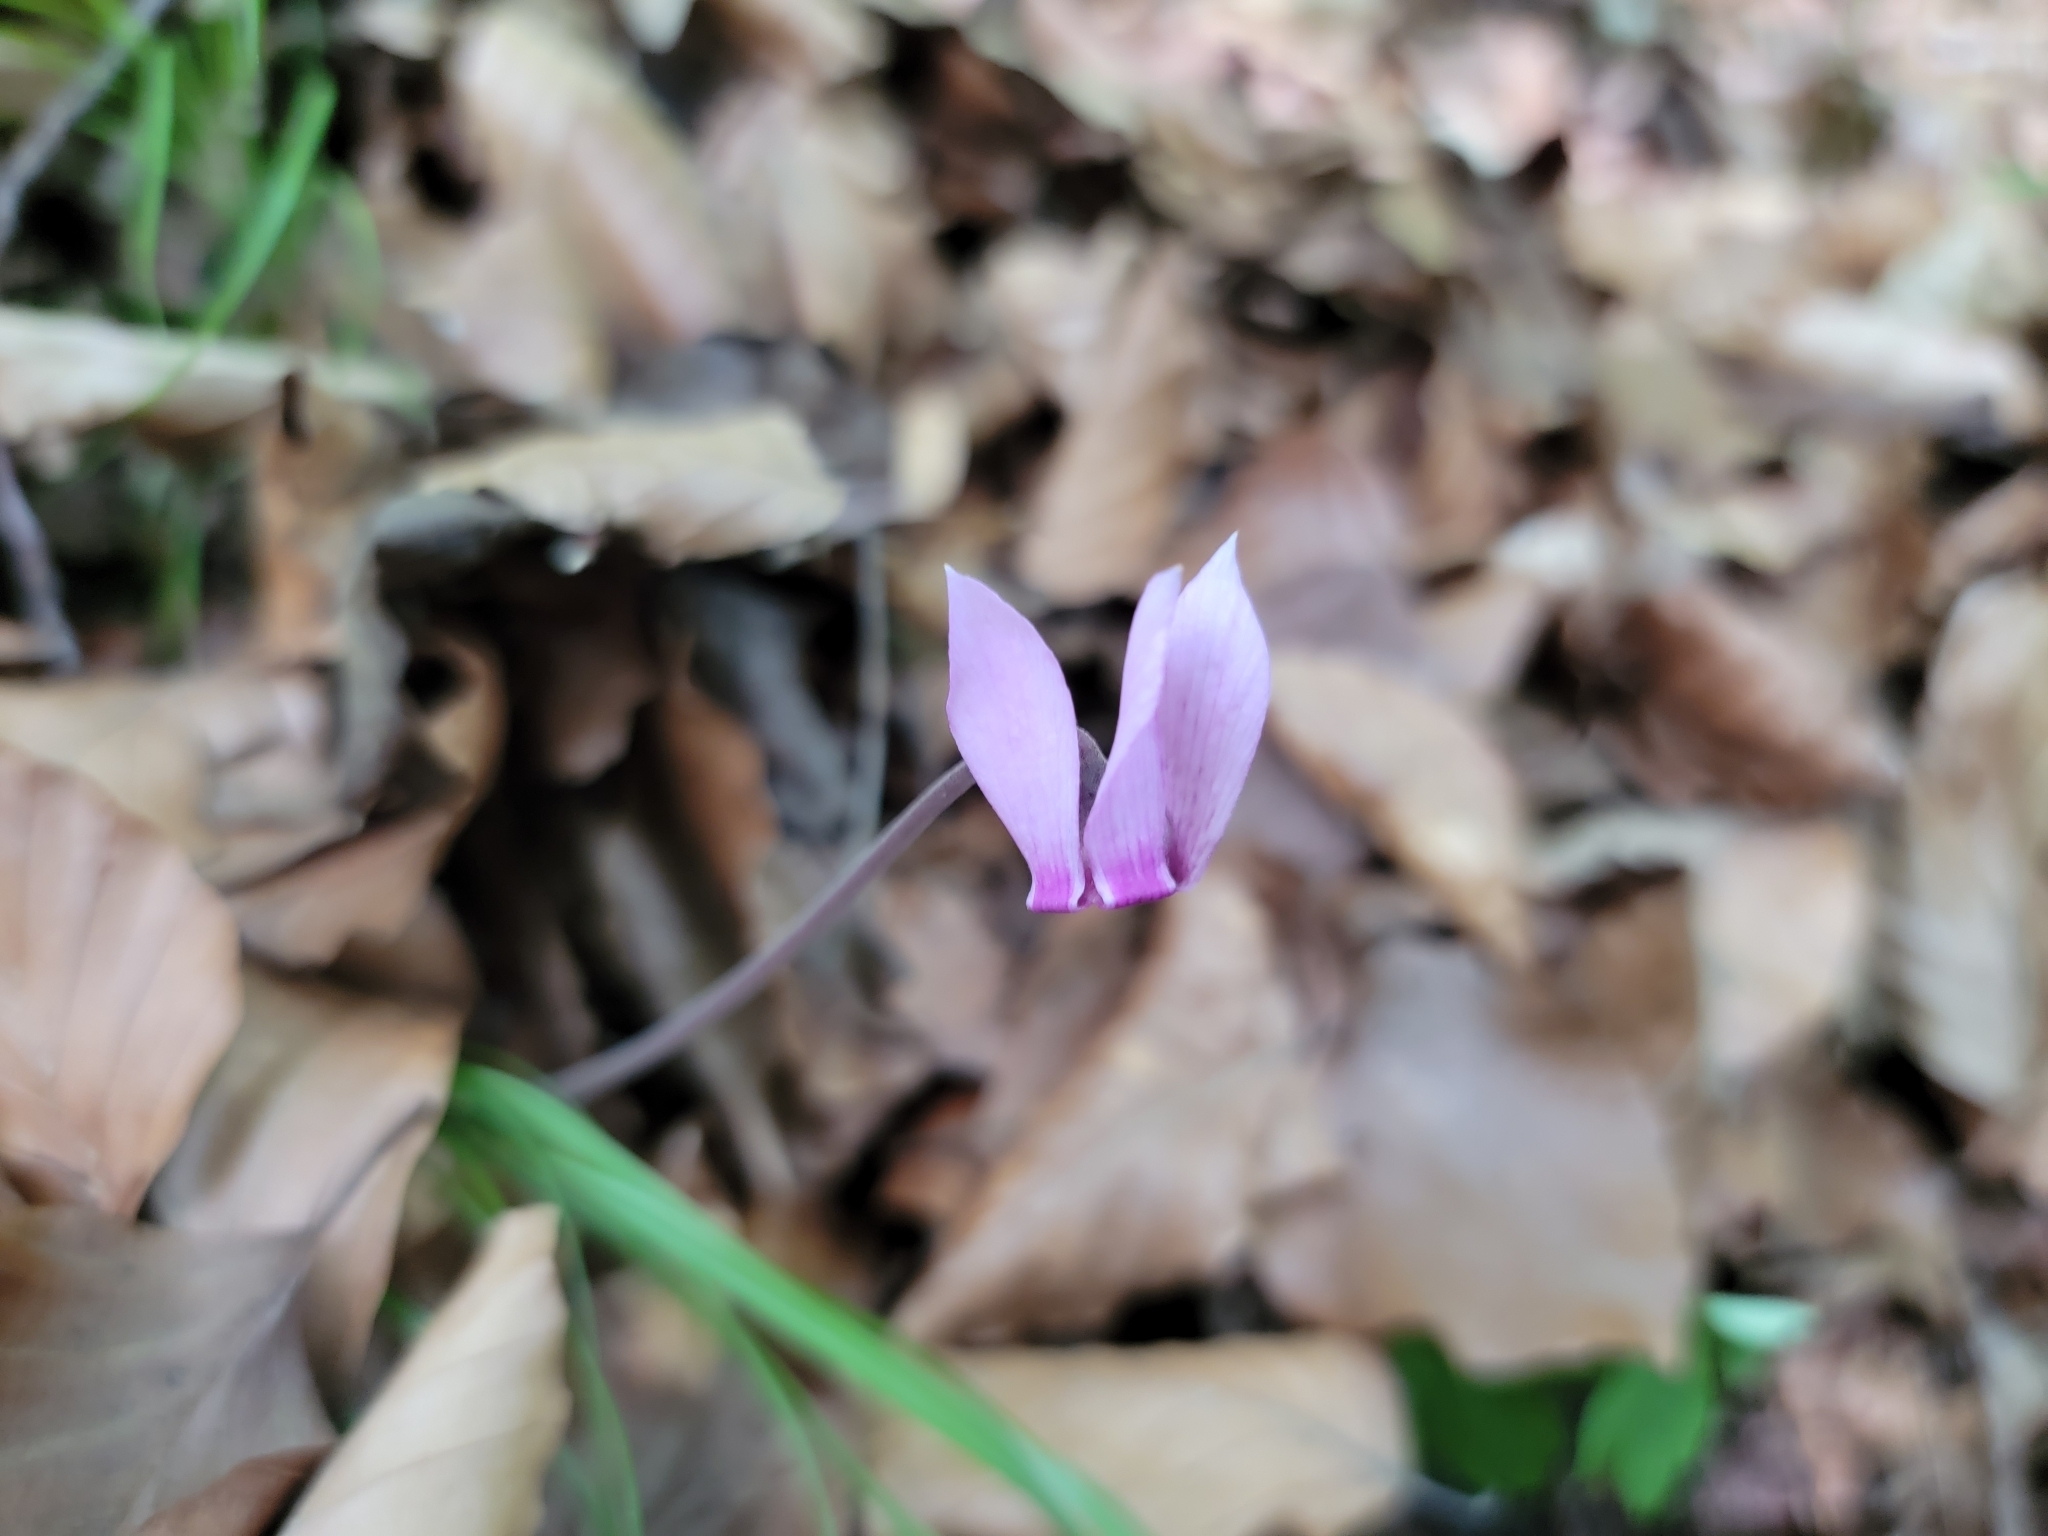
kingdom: Plantae
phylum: Tracheophyta
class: Magnoliopsida
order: Ericales
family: Primulaceae
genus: Cyclamen
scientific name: Cyclamen purpurascens
